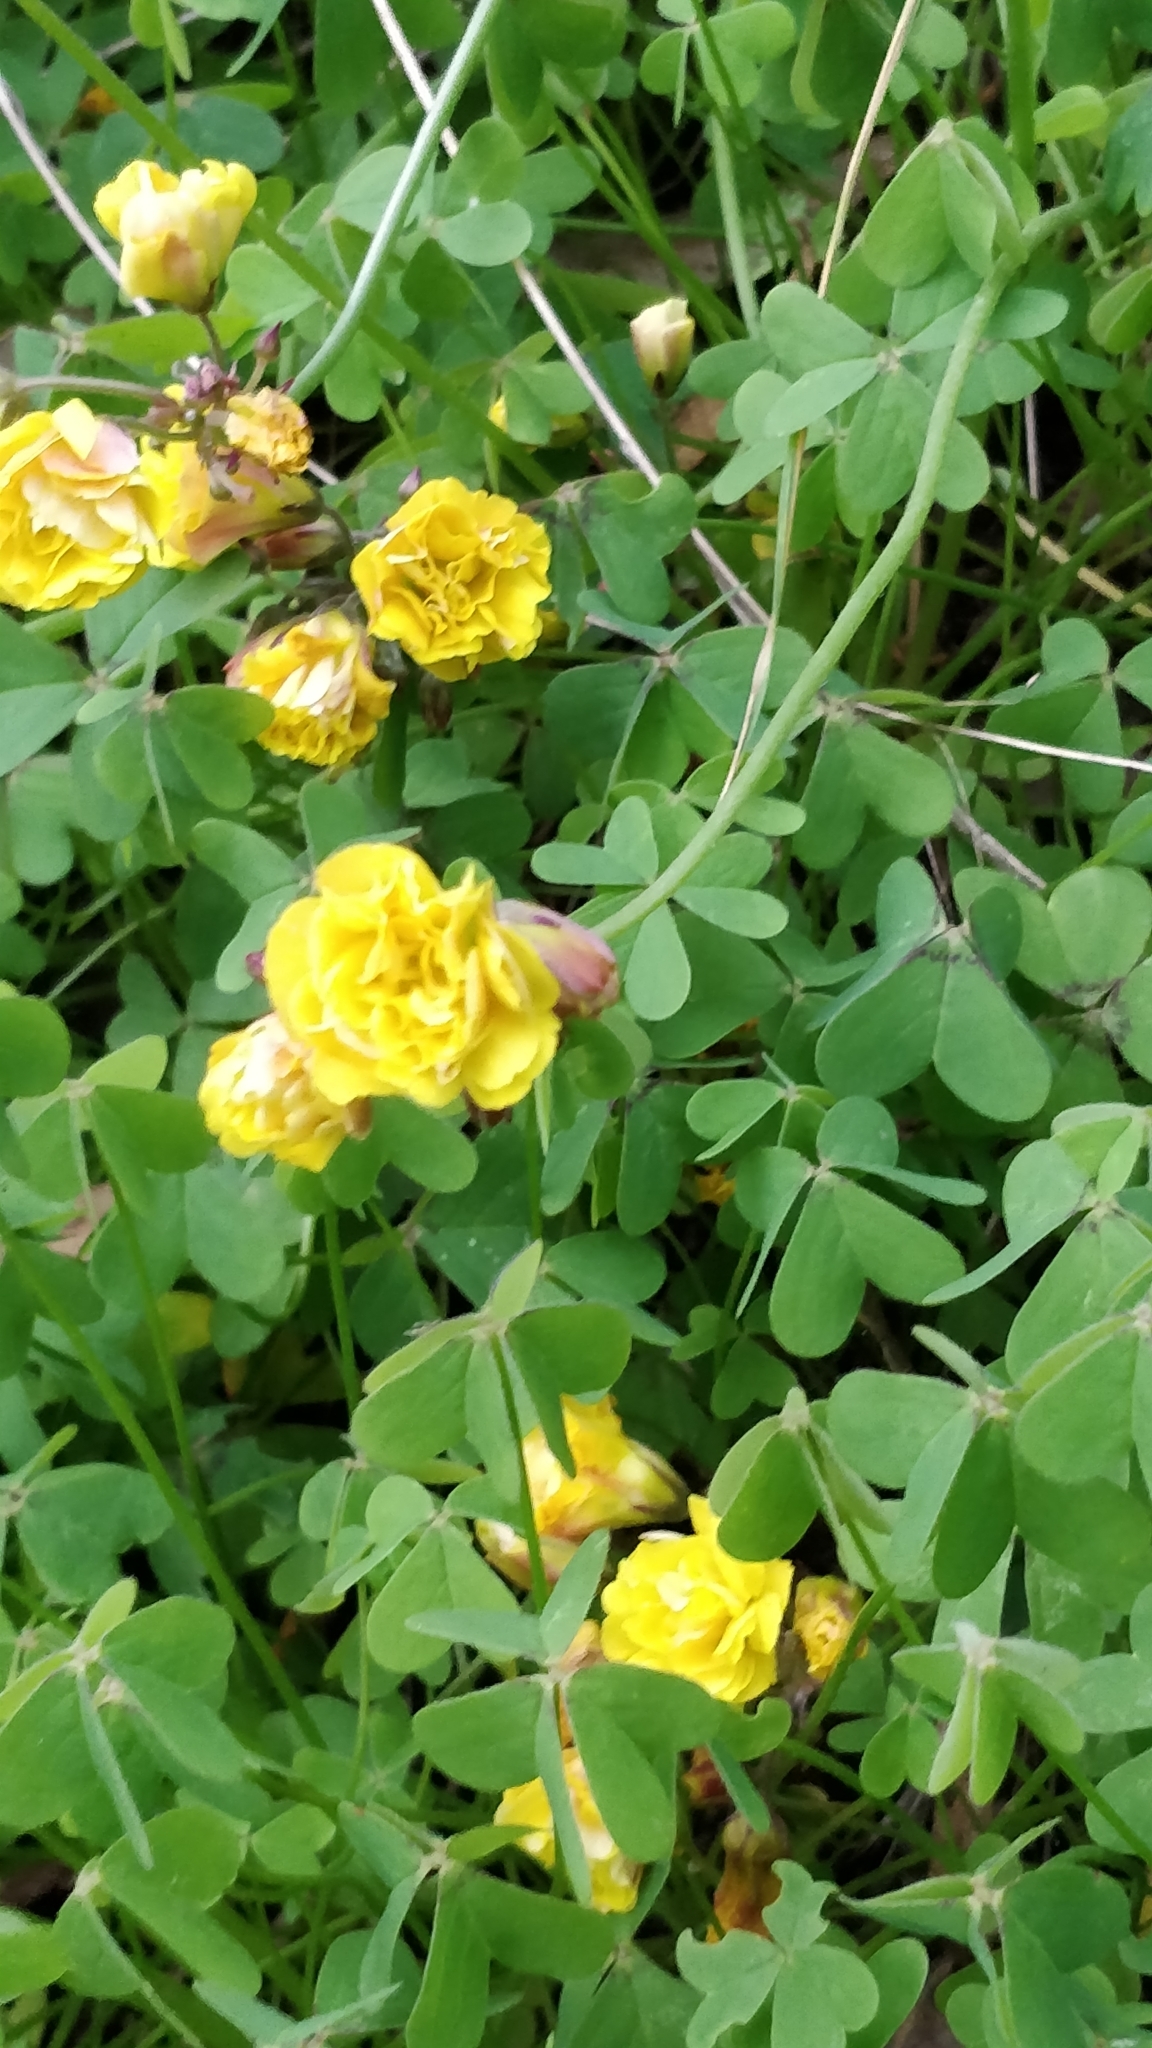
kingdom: Plantae
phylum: Tracheophyta
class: Magnoliopsida
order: Oxalidales
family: Oxalidaceae
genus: Oxalis
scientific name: Oxalis pes-caprae
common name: Bermuda-buttercup
